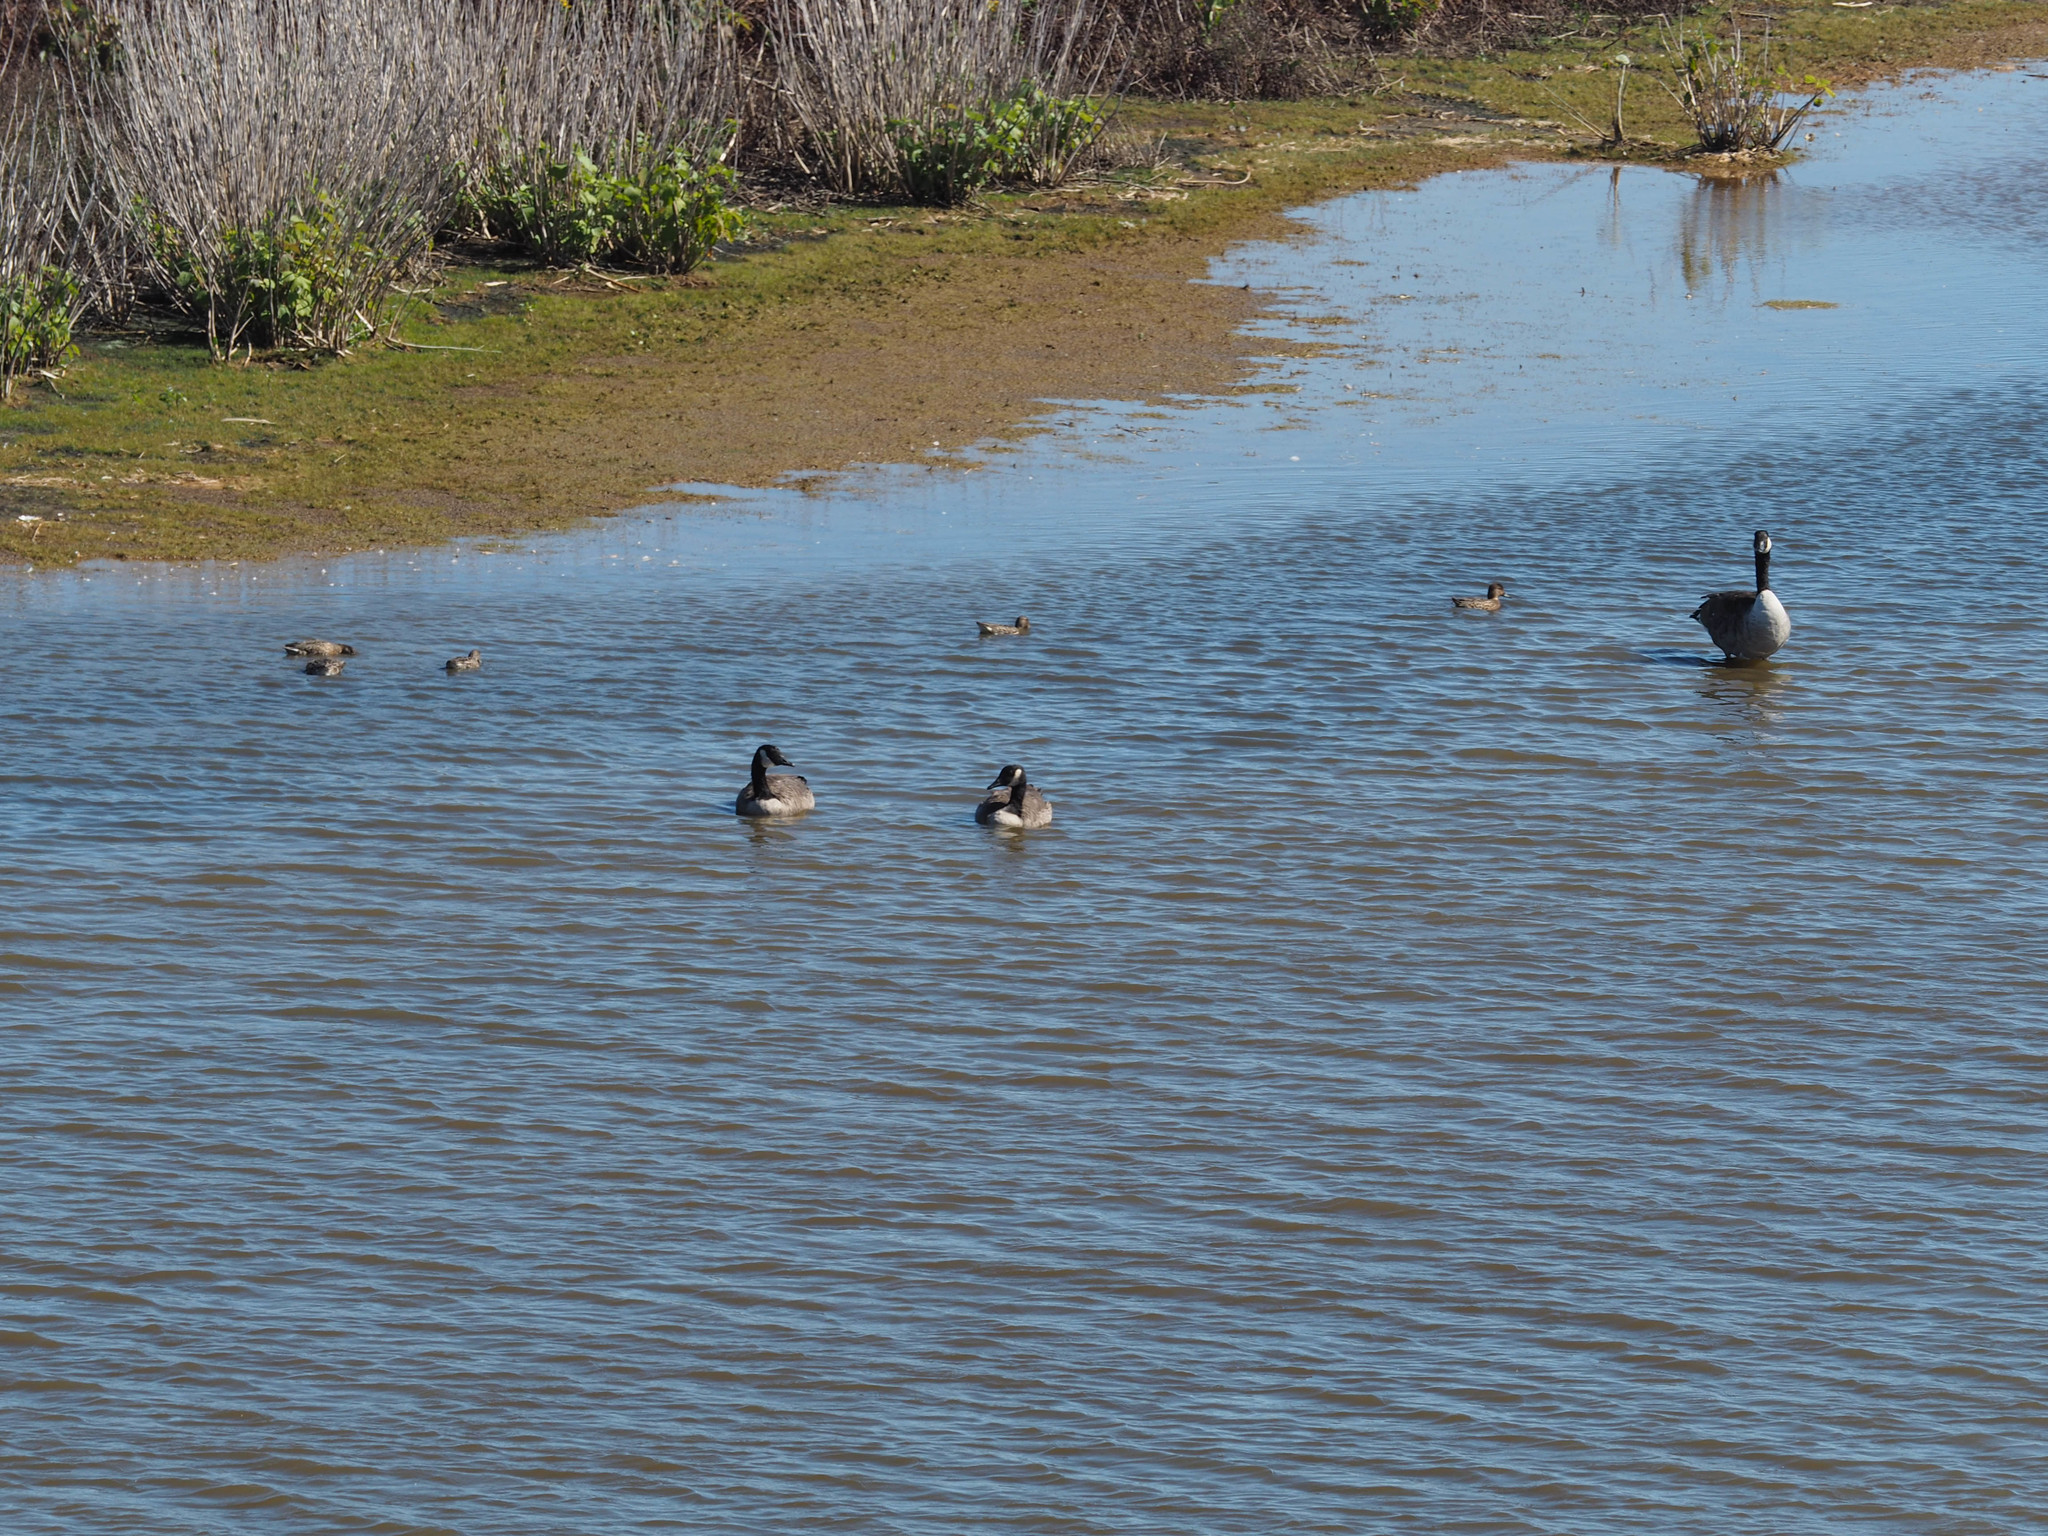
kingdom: Animalia
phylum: Chordata
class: Aves
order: Anseriformes
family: Anatidae
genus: Branta
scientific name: Branta canadensis
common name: Canada goose
